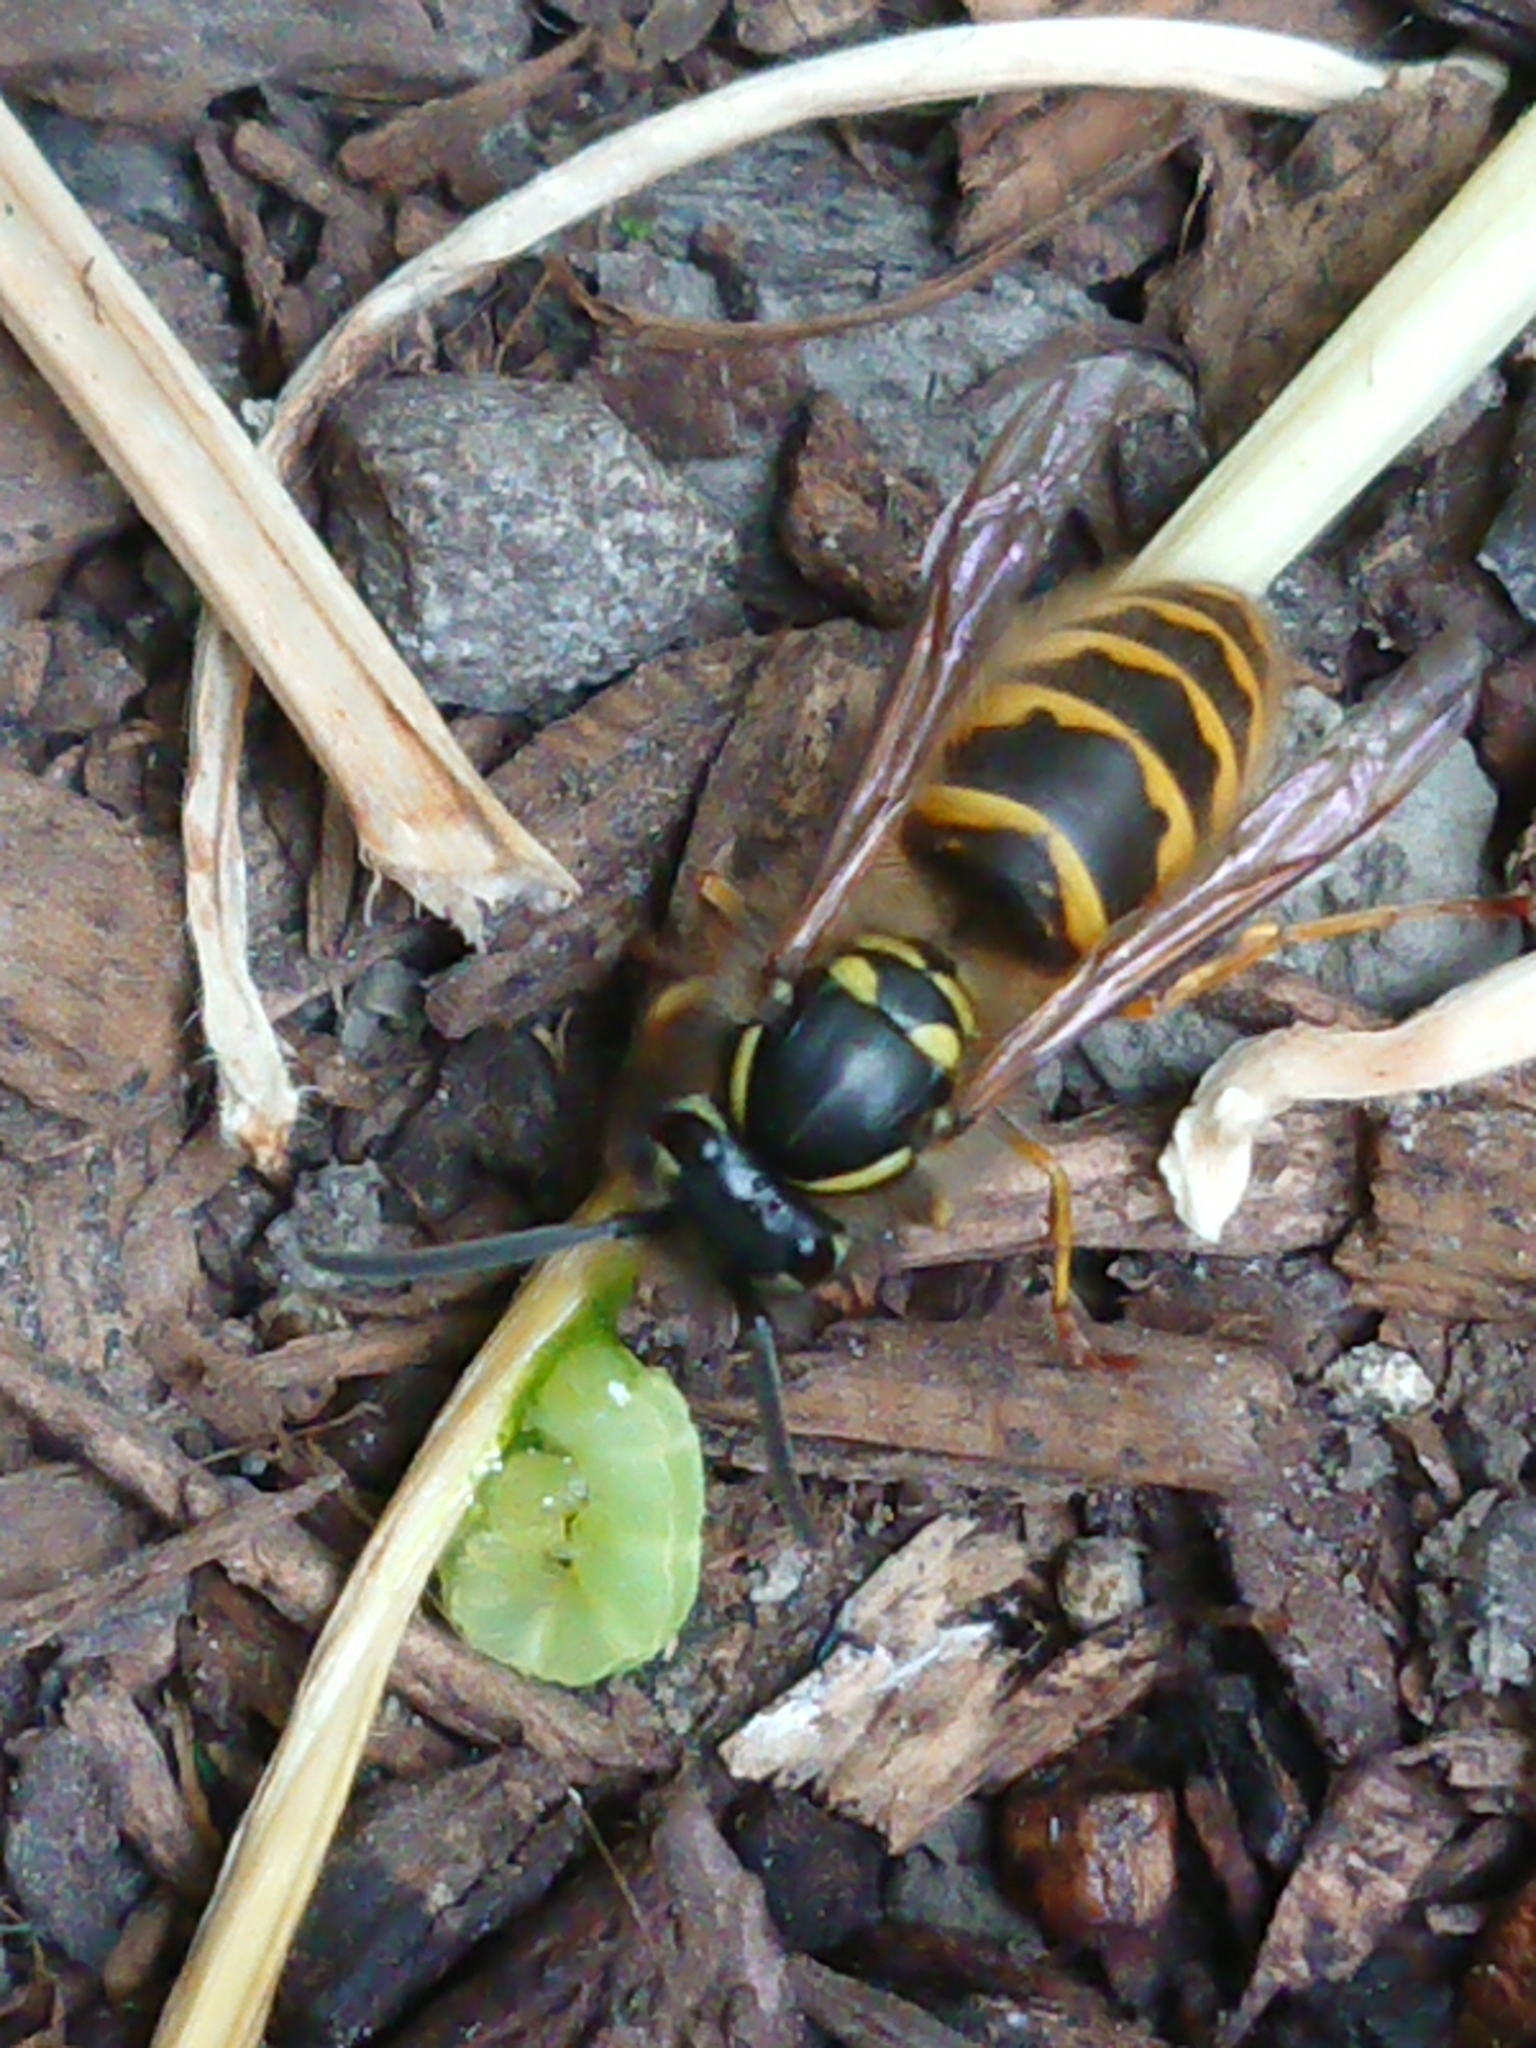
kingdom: Animalia
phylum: Arthropoda
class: Insecta
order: Hymenoptera
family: Vespidae
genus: Vespula
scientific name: Vespula vulgaris
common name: Common wasp
